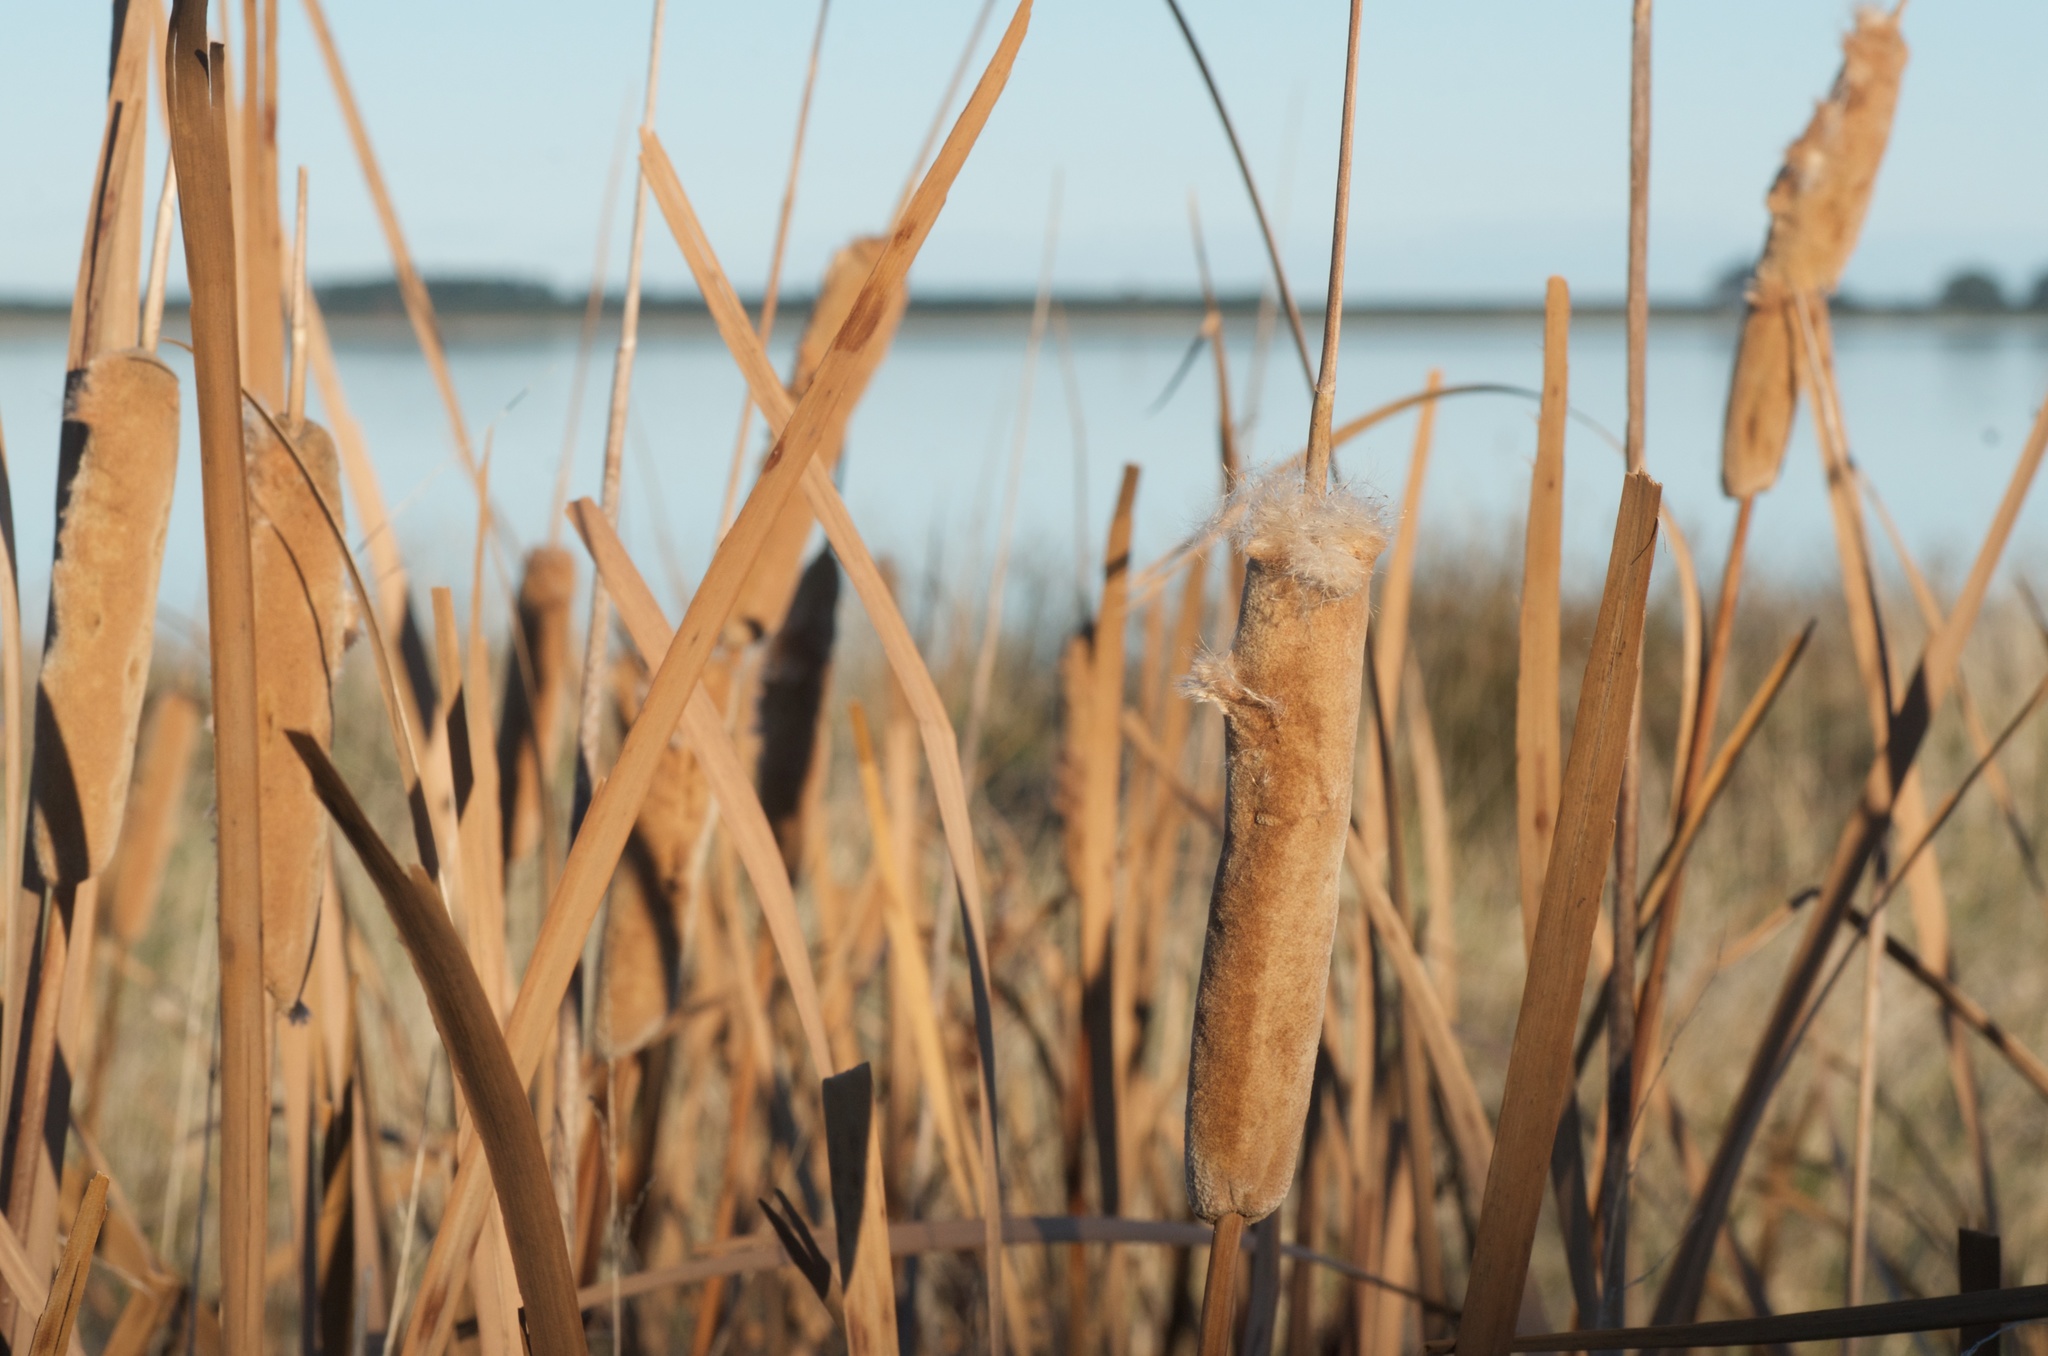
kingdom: Plantae
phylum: Tracheophyta
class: Liliopsida
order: Poales
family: Typhaceae
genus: Typha
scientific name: Typha orientalis
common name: Bullrush
